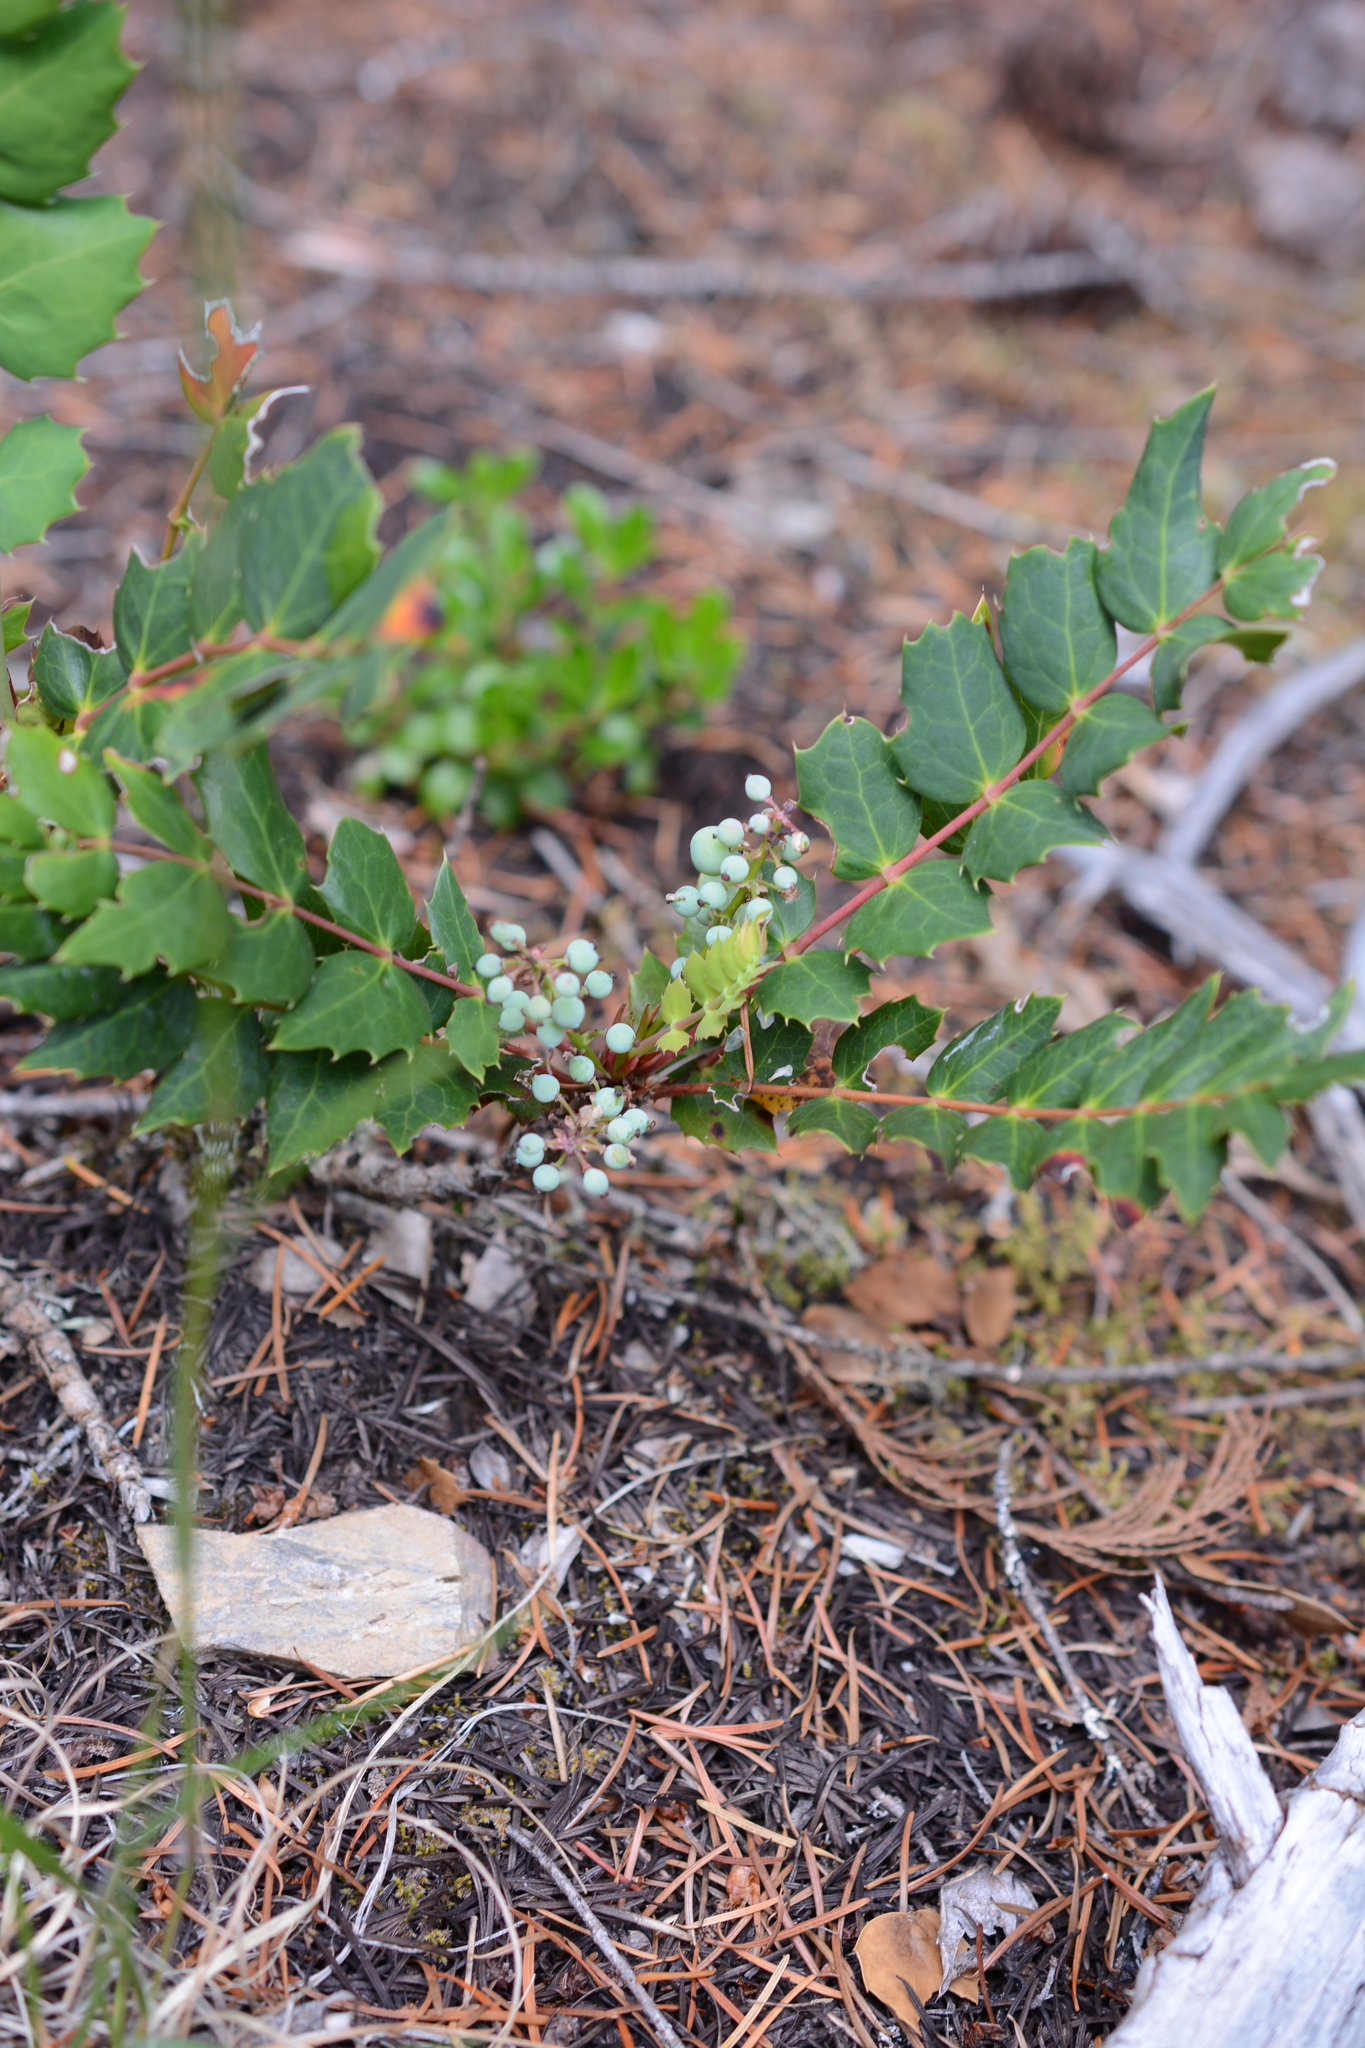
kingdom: Plantae
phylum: Tracheophyta
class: Magnoliopsida
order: Ranunculales
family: Berberidaceae
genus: Mahonia
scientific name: Mahonia nervosa
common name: Cascade oregon-grape
